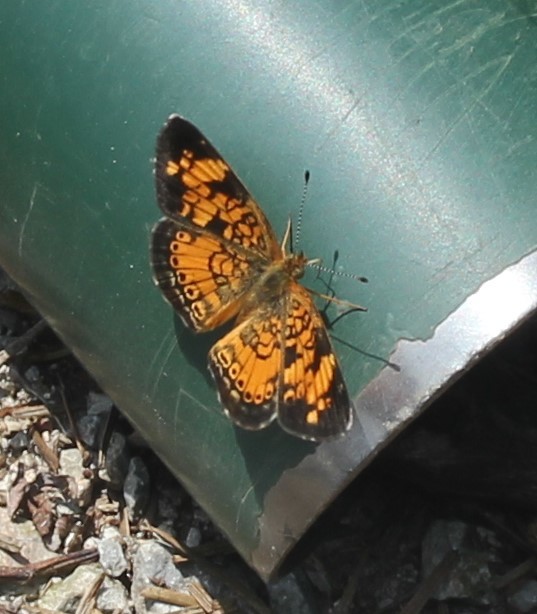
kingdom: Animalia
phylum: Arthropoda
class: Insecta
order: Lepidoptera
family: Nymphalidae
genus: Phyciodes
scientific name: Phyciodes tharos
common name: Pearl crescent
